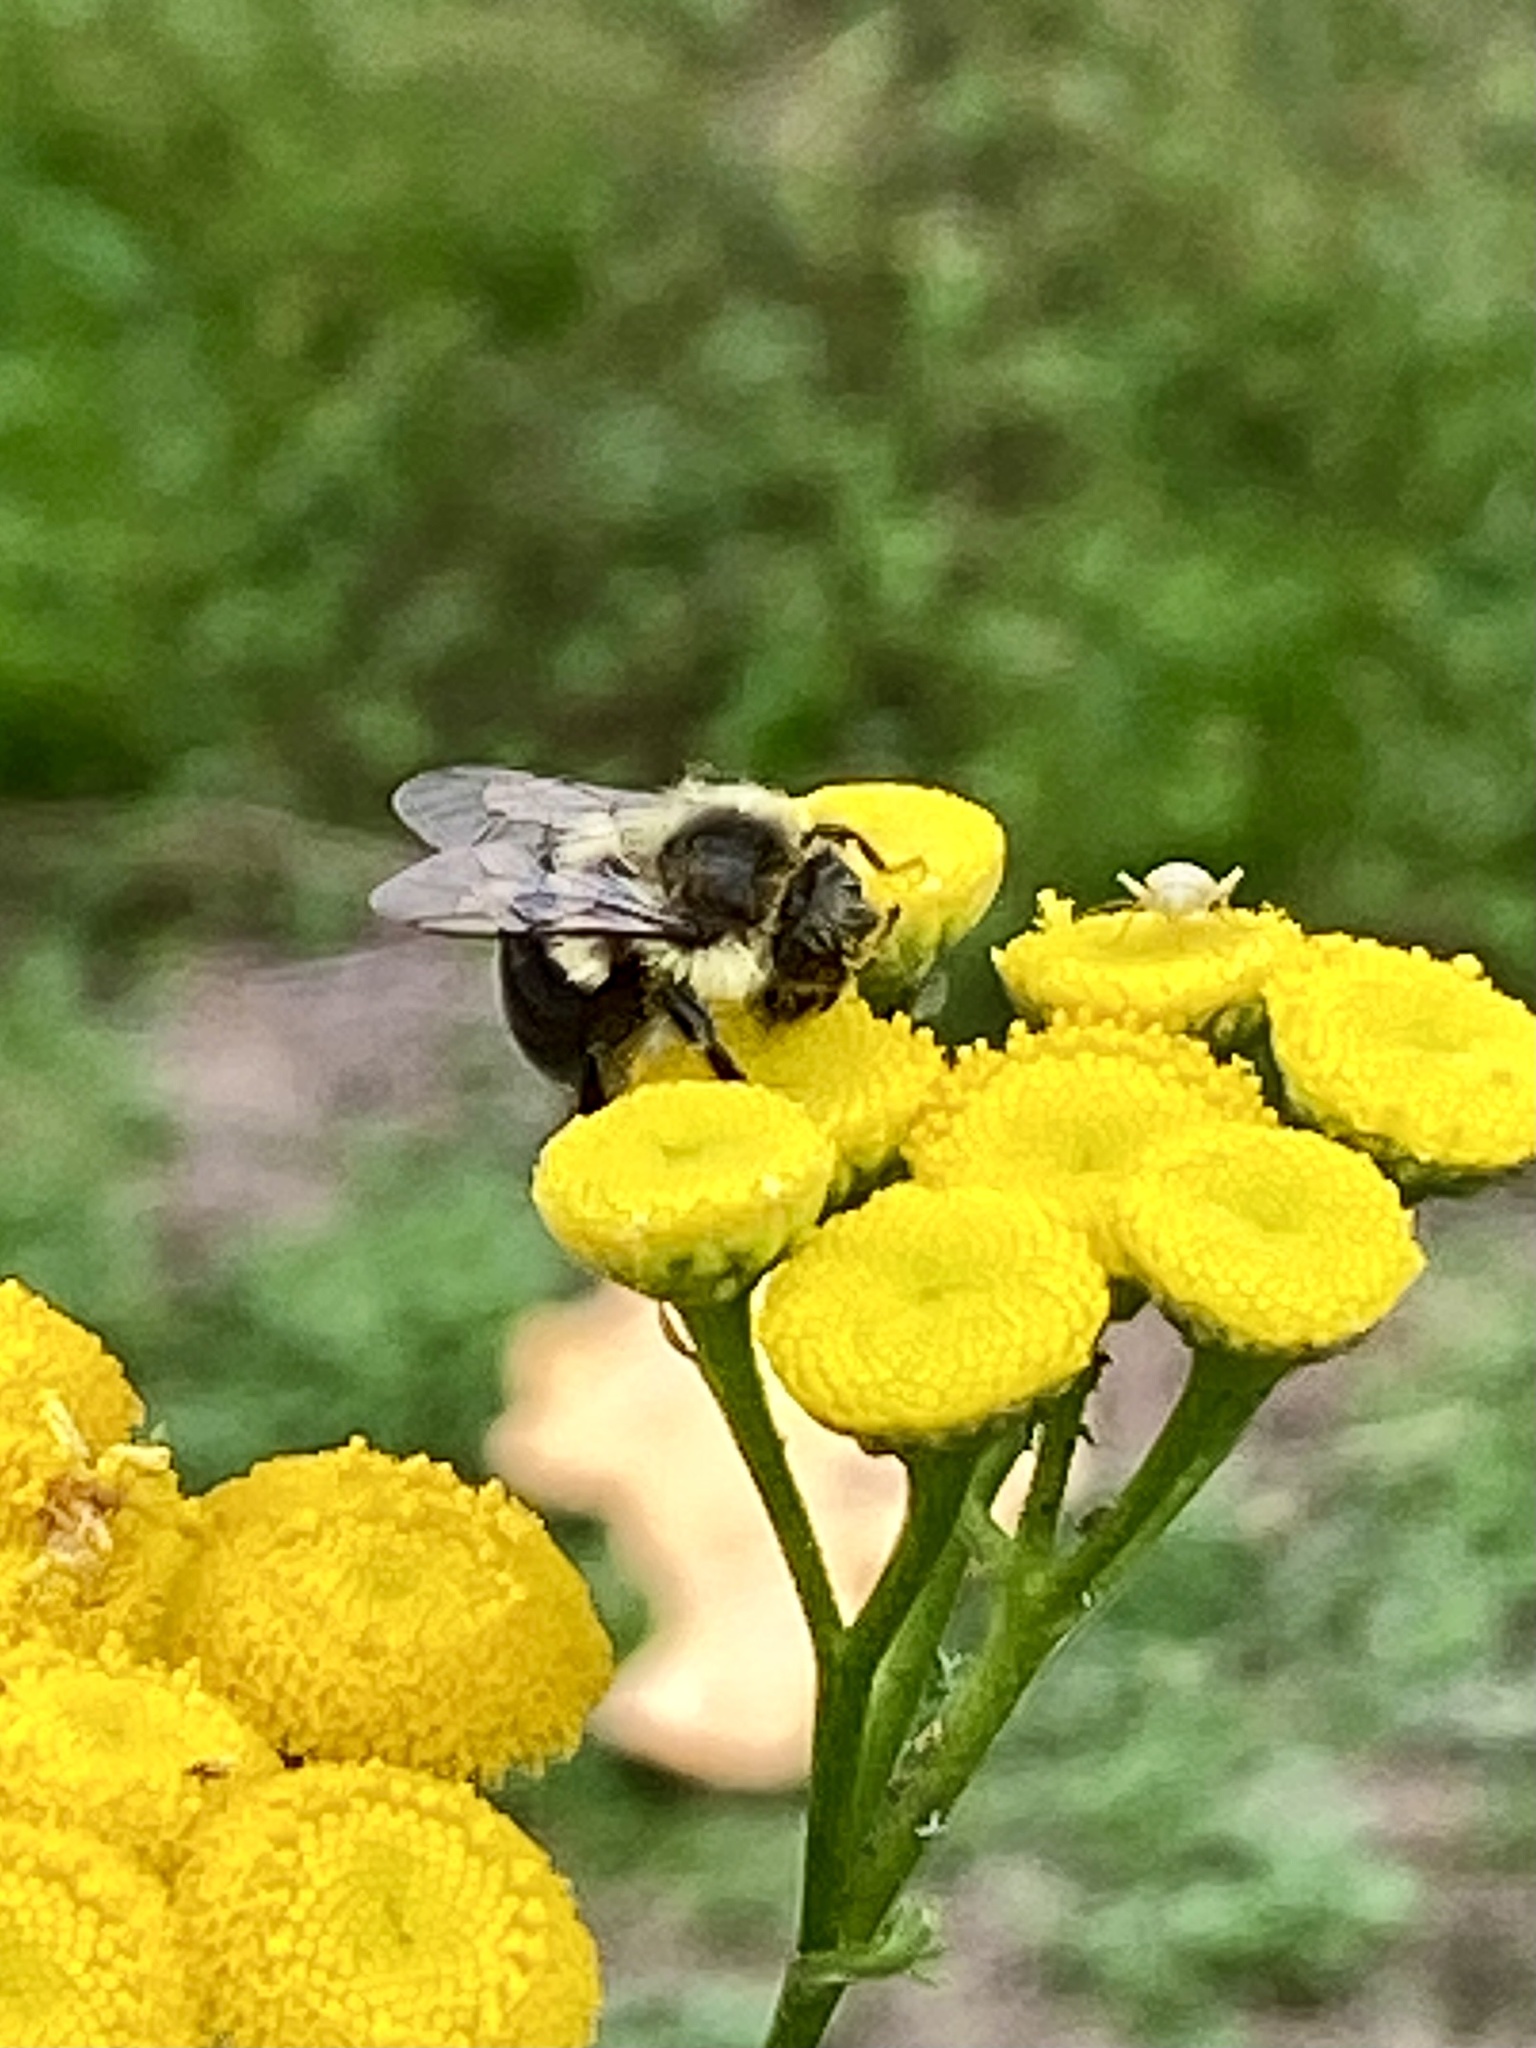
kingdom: Animalia
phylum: Arthropoda
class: Insecta
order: Hymenoptera
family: Apidae
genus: Bombus
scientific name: Bombus impatiens
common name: Common eastern bumble bee
